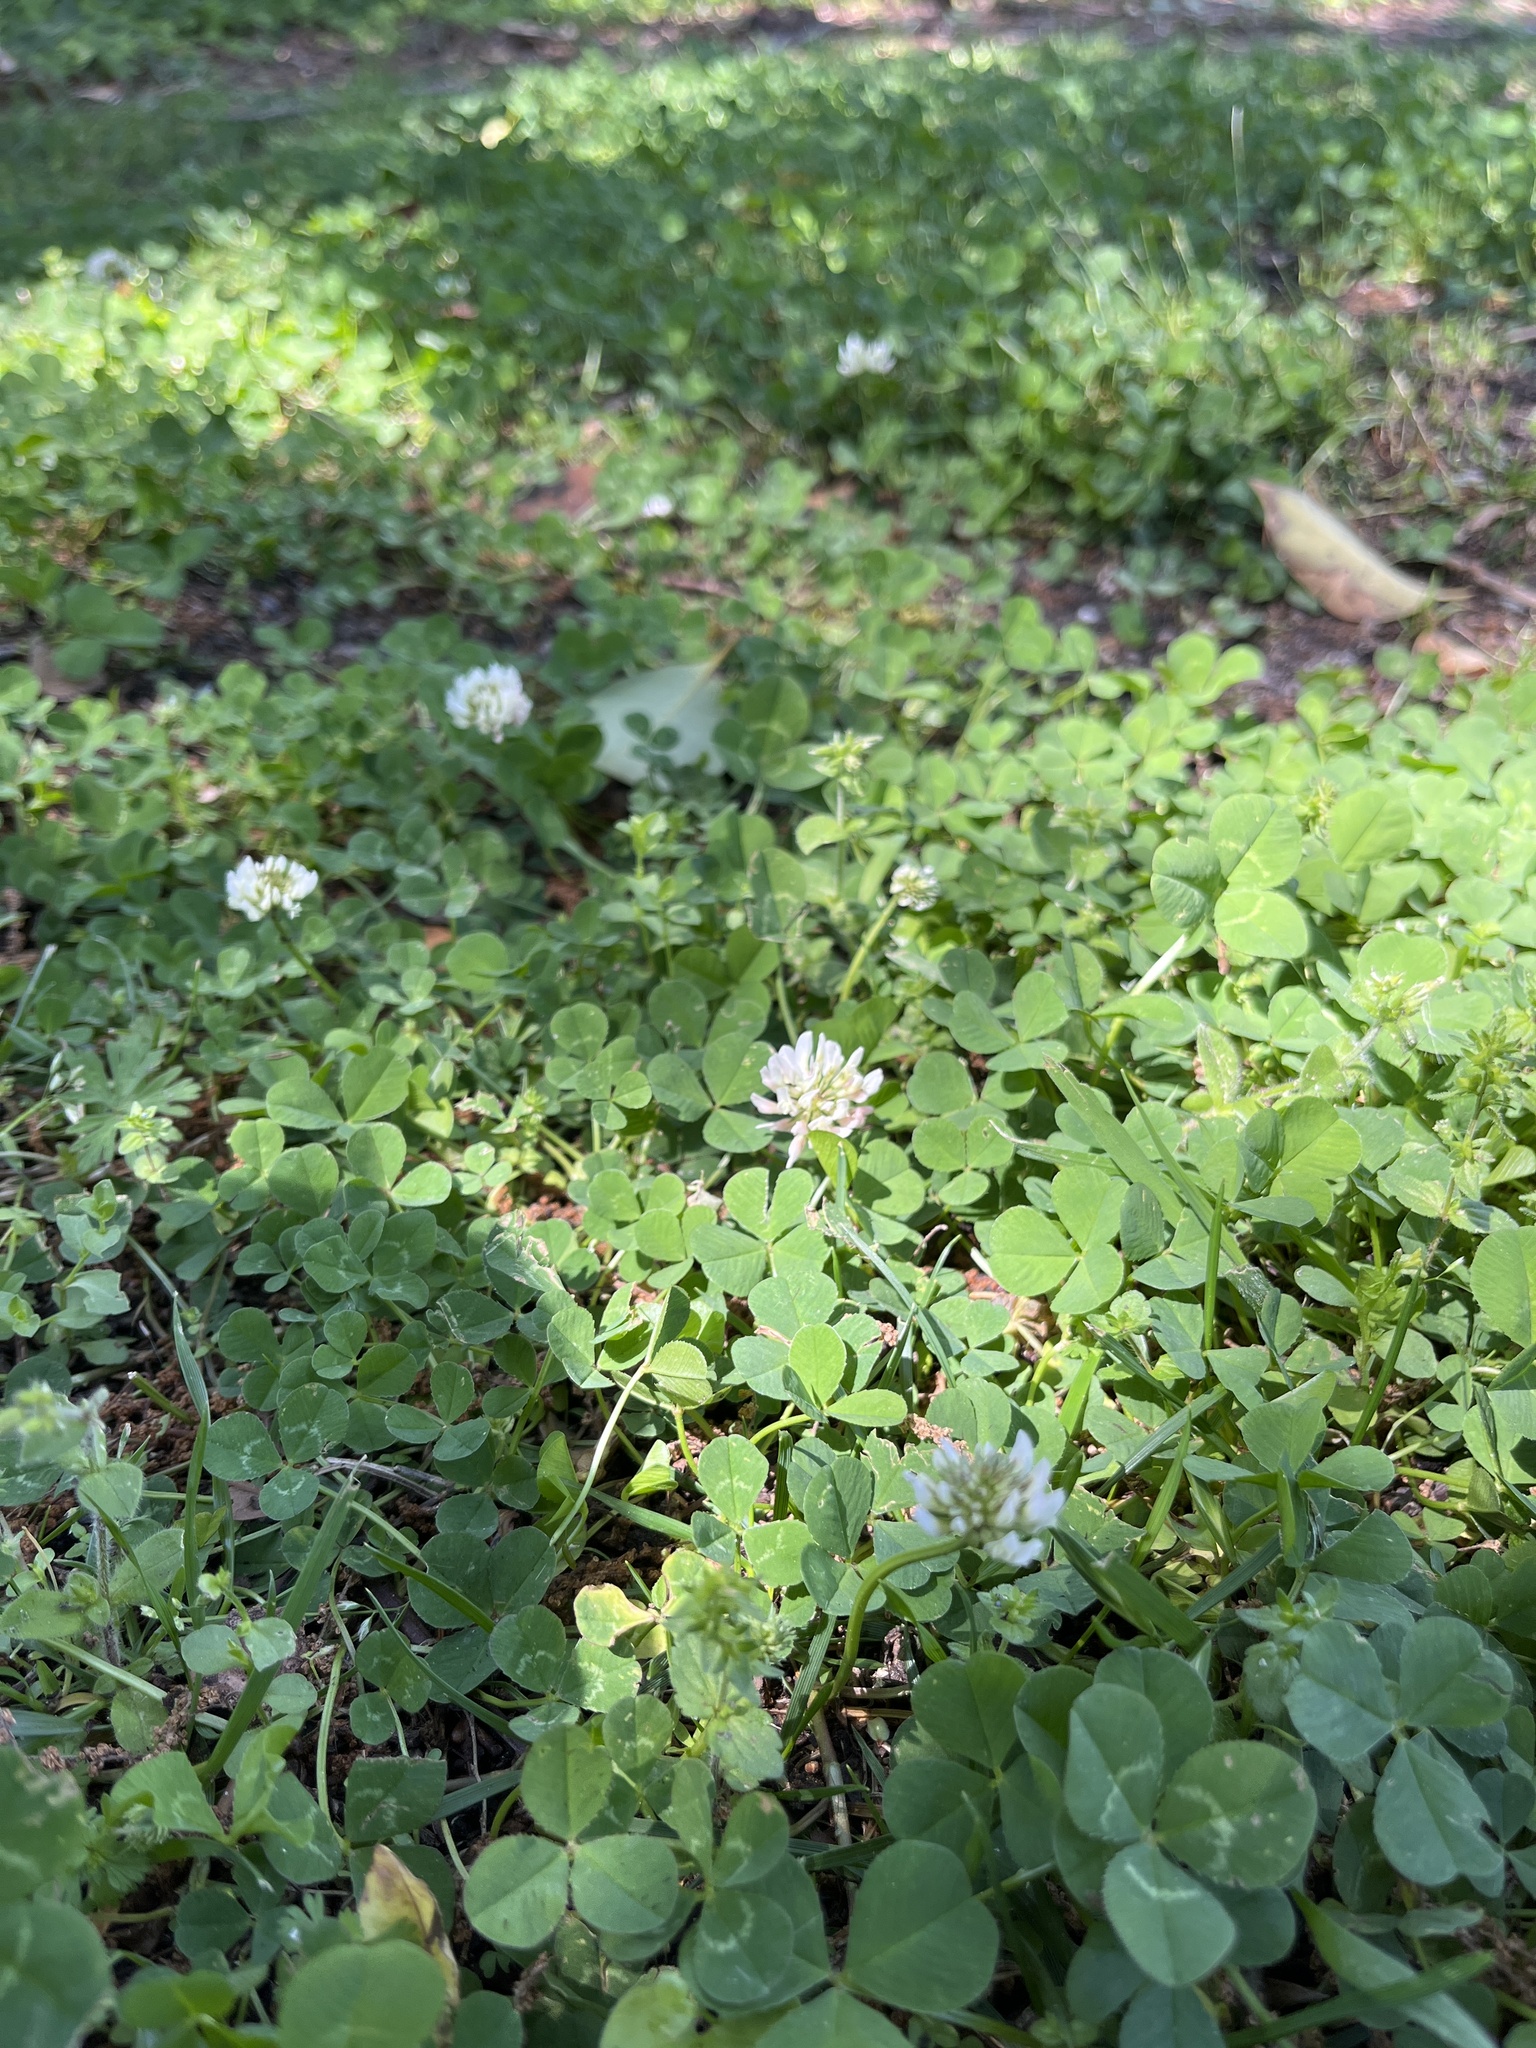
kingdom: Plantae
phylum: Tracheophyta
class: Magnoliopsida
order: Fabales
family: Fabaceae
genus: Trifolium
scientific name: Trifolium repens
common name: White clover
